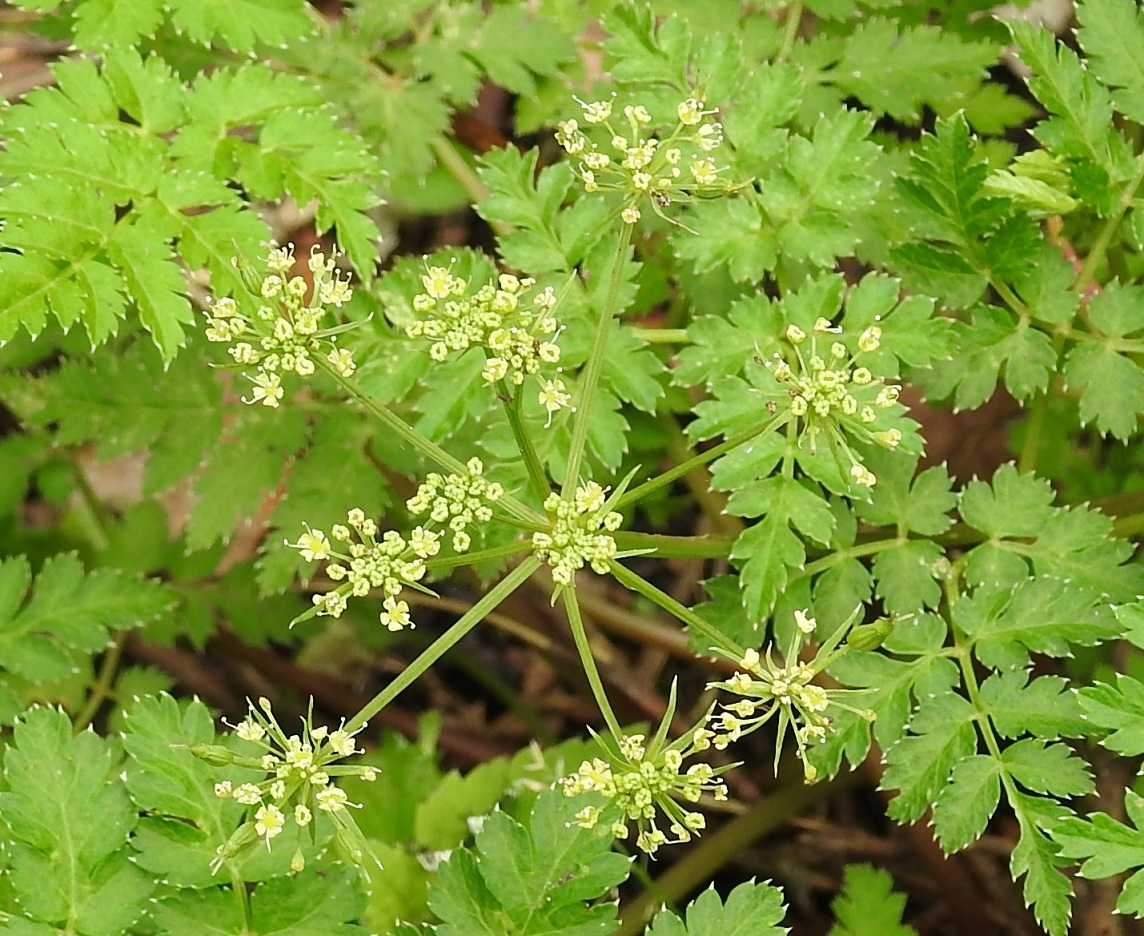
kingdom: Plantae
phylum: Tracheophyta
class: Magnoliopsida
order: Apiales
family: Apiaceae
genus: Arracacia
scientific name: Arracacia pringlei
